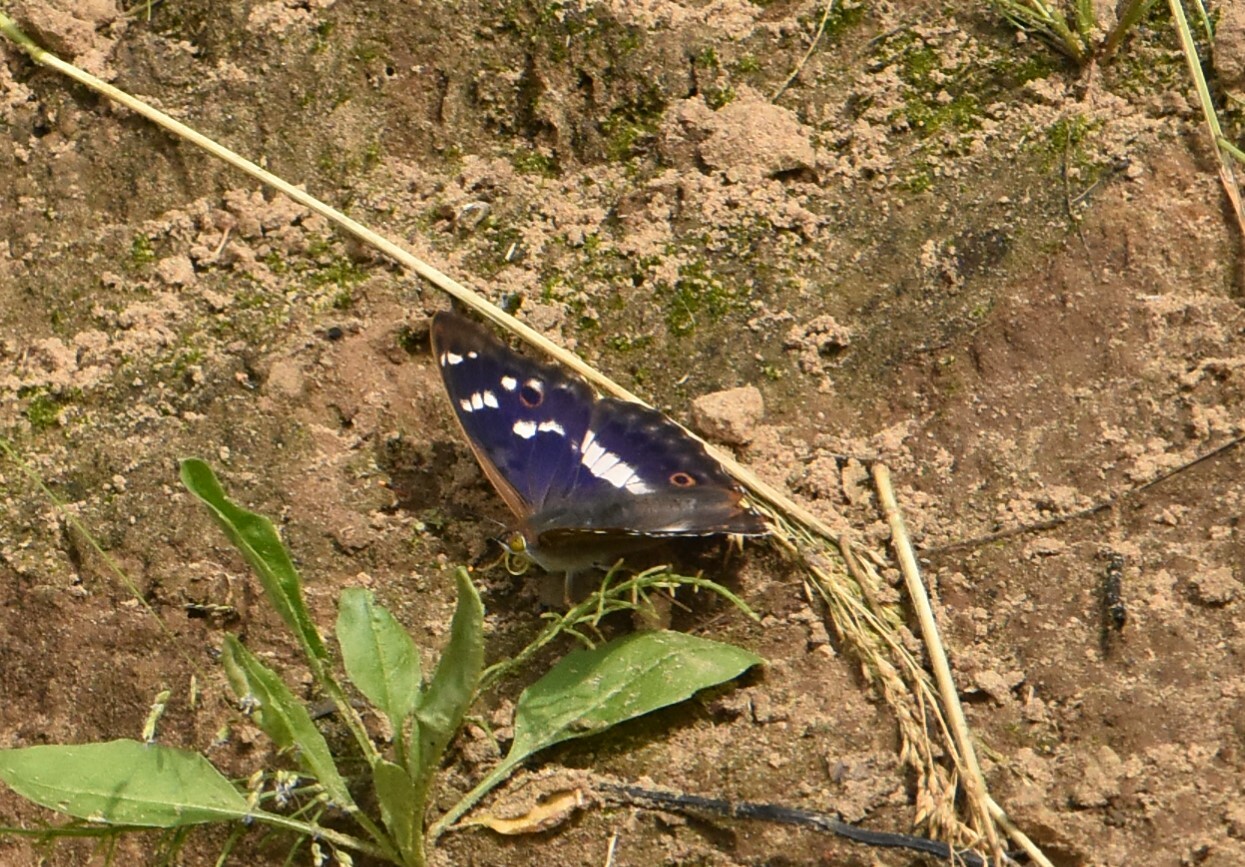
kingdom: Animalia
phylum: Arthropoda
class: Insecta
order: Lepidoptera
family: Nymphalidae
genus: Apatura
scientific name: Apatura ilia
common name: Lesser purple emperor
